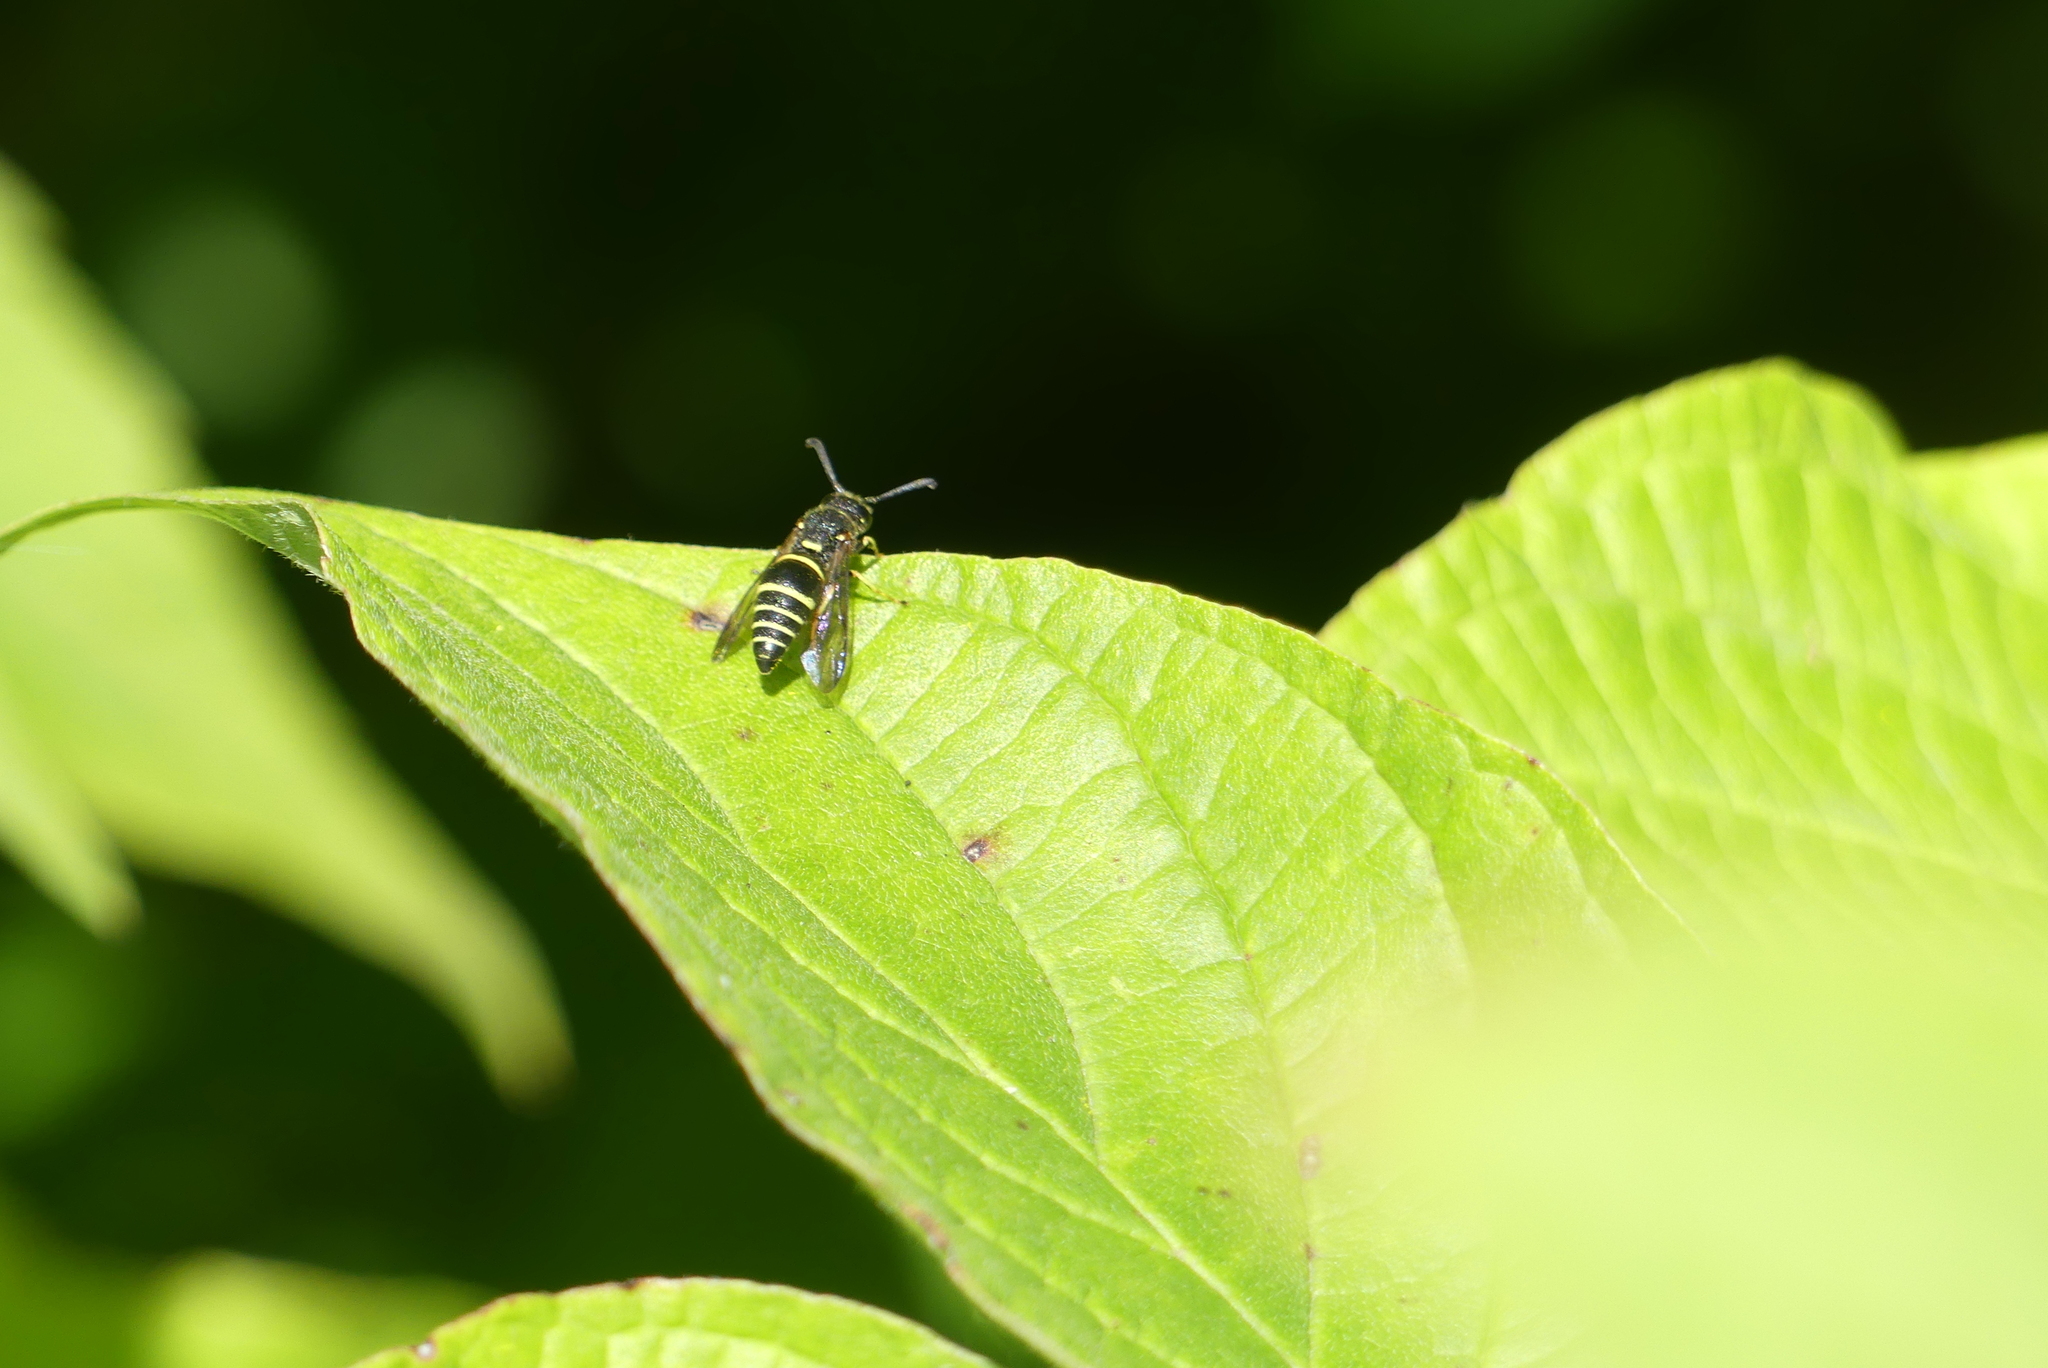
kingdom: Animalia
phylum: Arthropoda
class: Insecta
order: Hymenoptera
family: Eumenidae
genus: Euodynerus
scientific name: Euodynerus foraminatus
